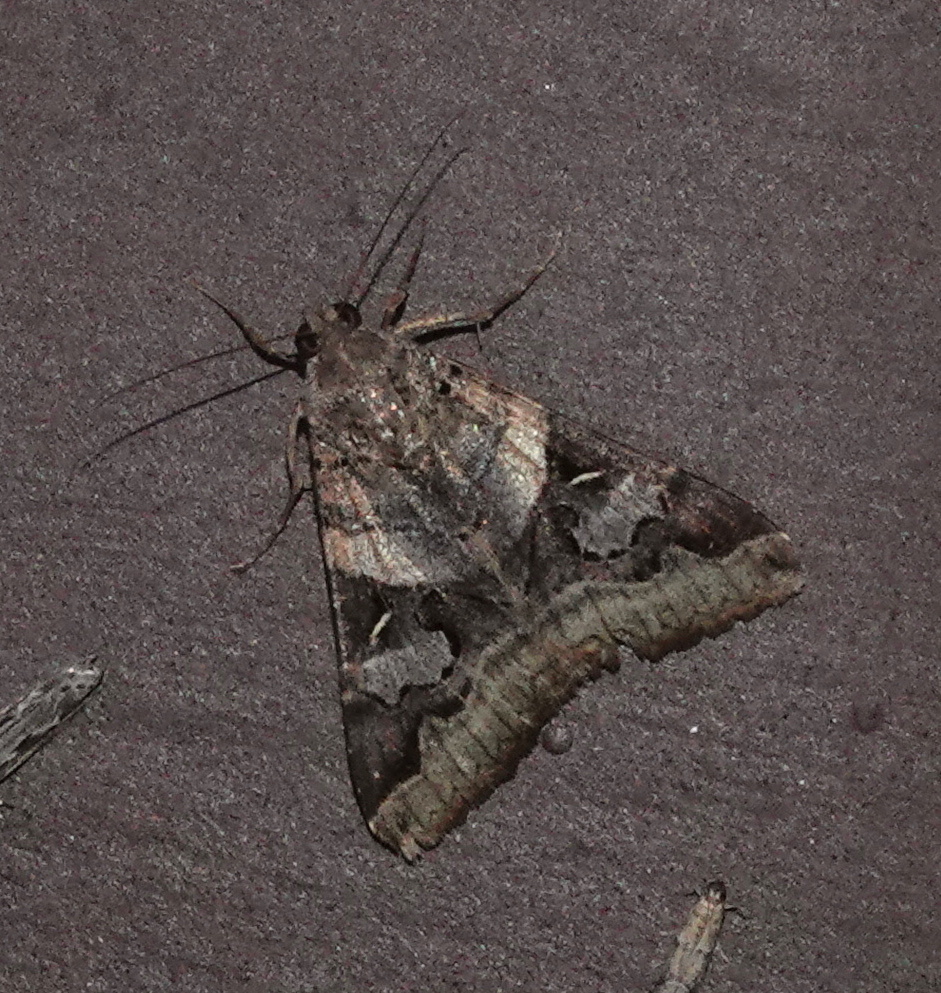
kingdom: Animalia
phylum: Arthropoda
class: Insecta
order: Lepidoptera
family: Erebidae
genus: Melipotis
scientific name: Melipotis indomita
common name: Moth
